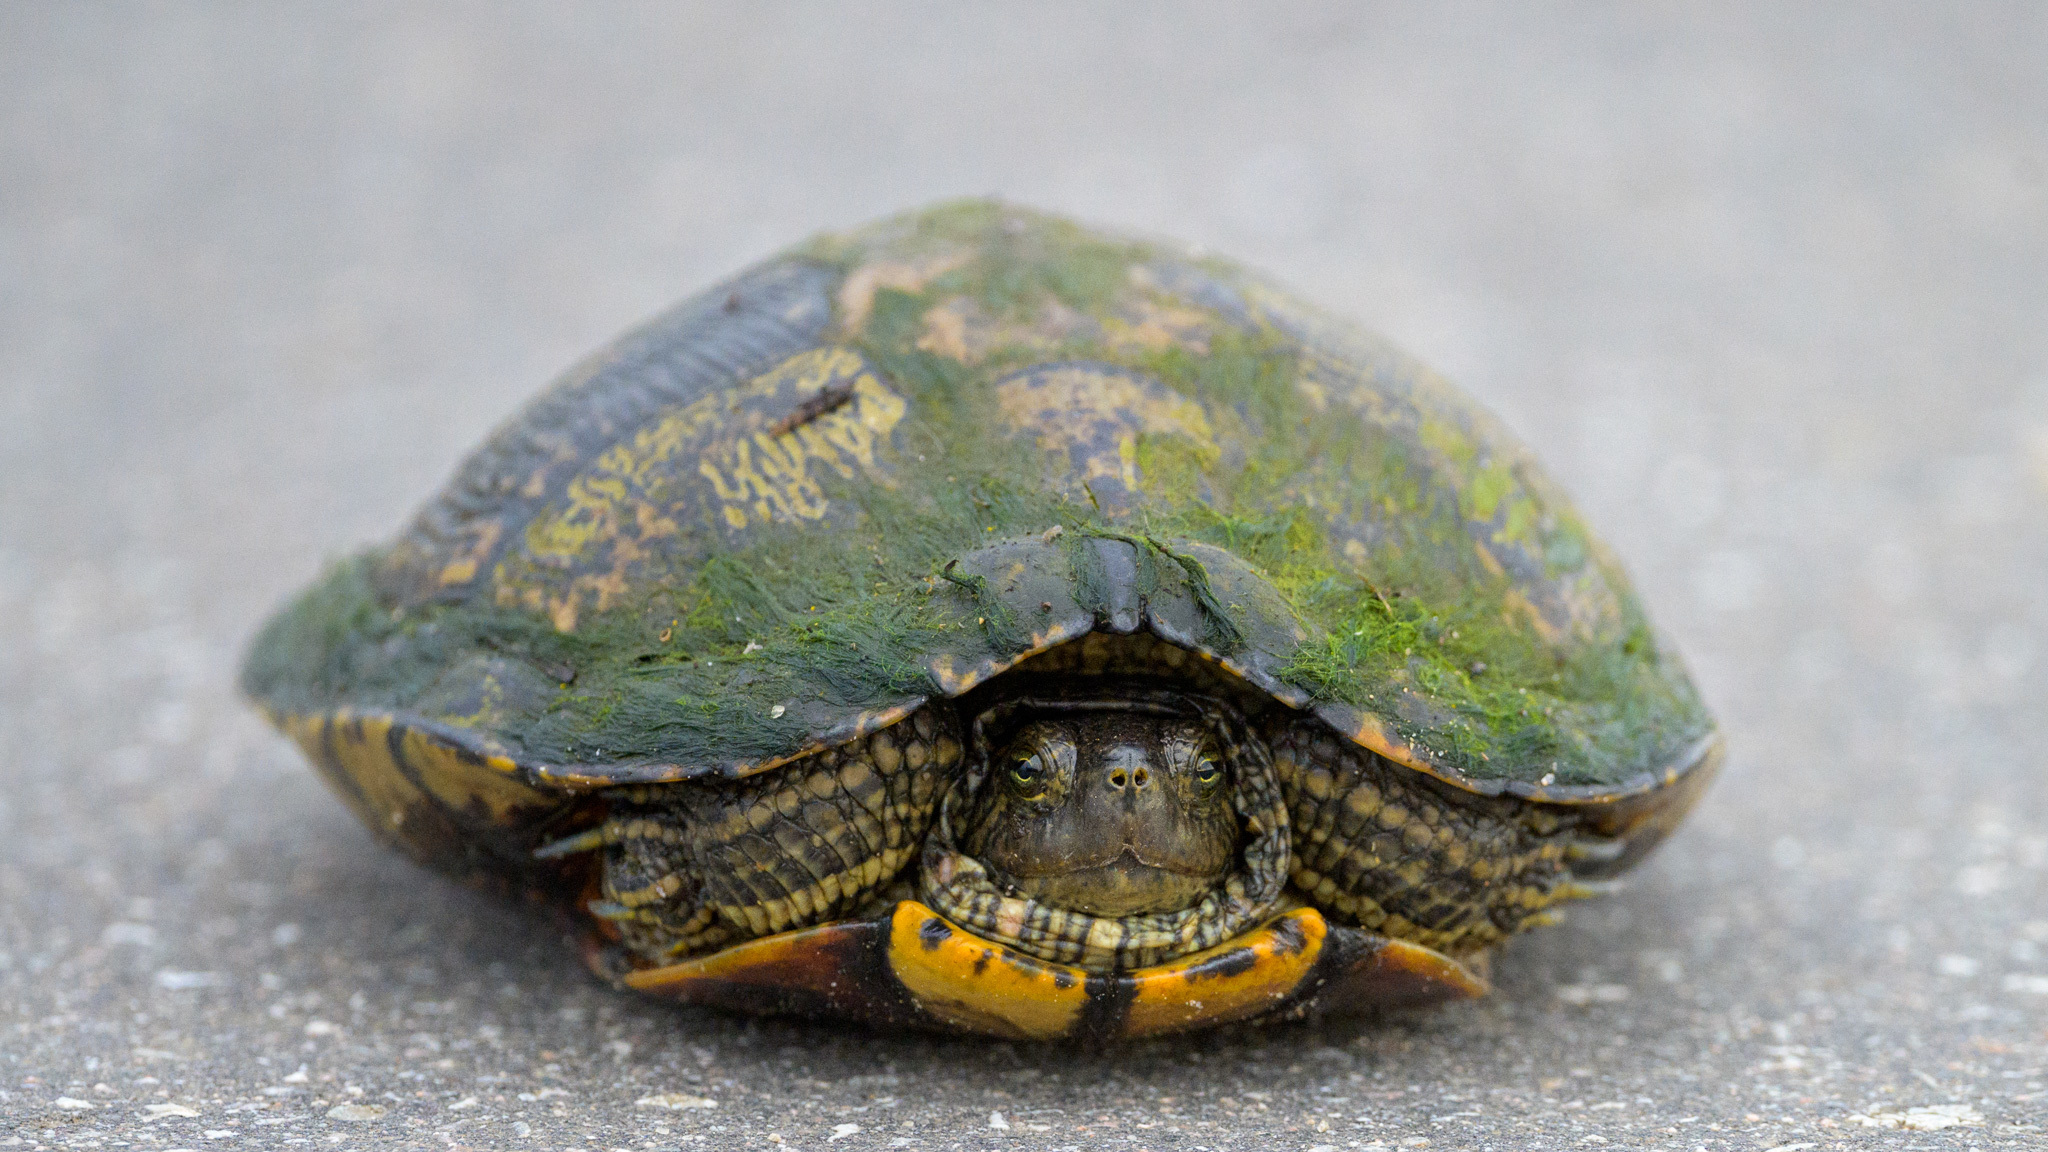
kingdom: Animalia
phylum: Chordata
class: Testudines
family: Emydidae
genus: Trachemys
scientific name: Trachemys scripta
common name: Slider
